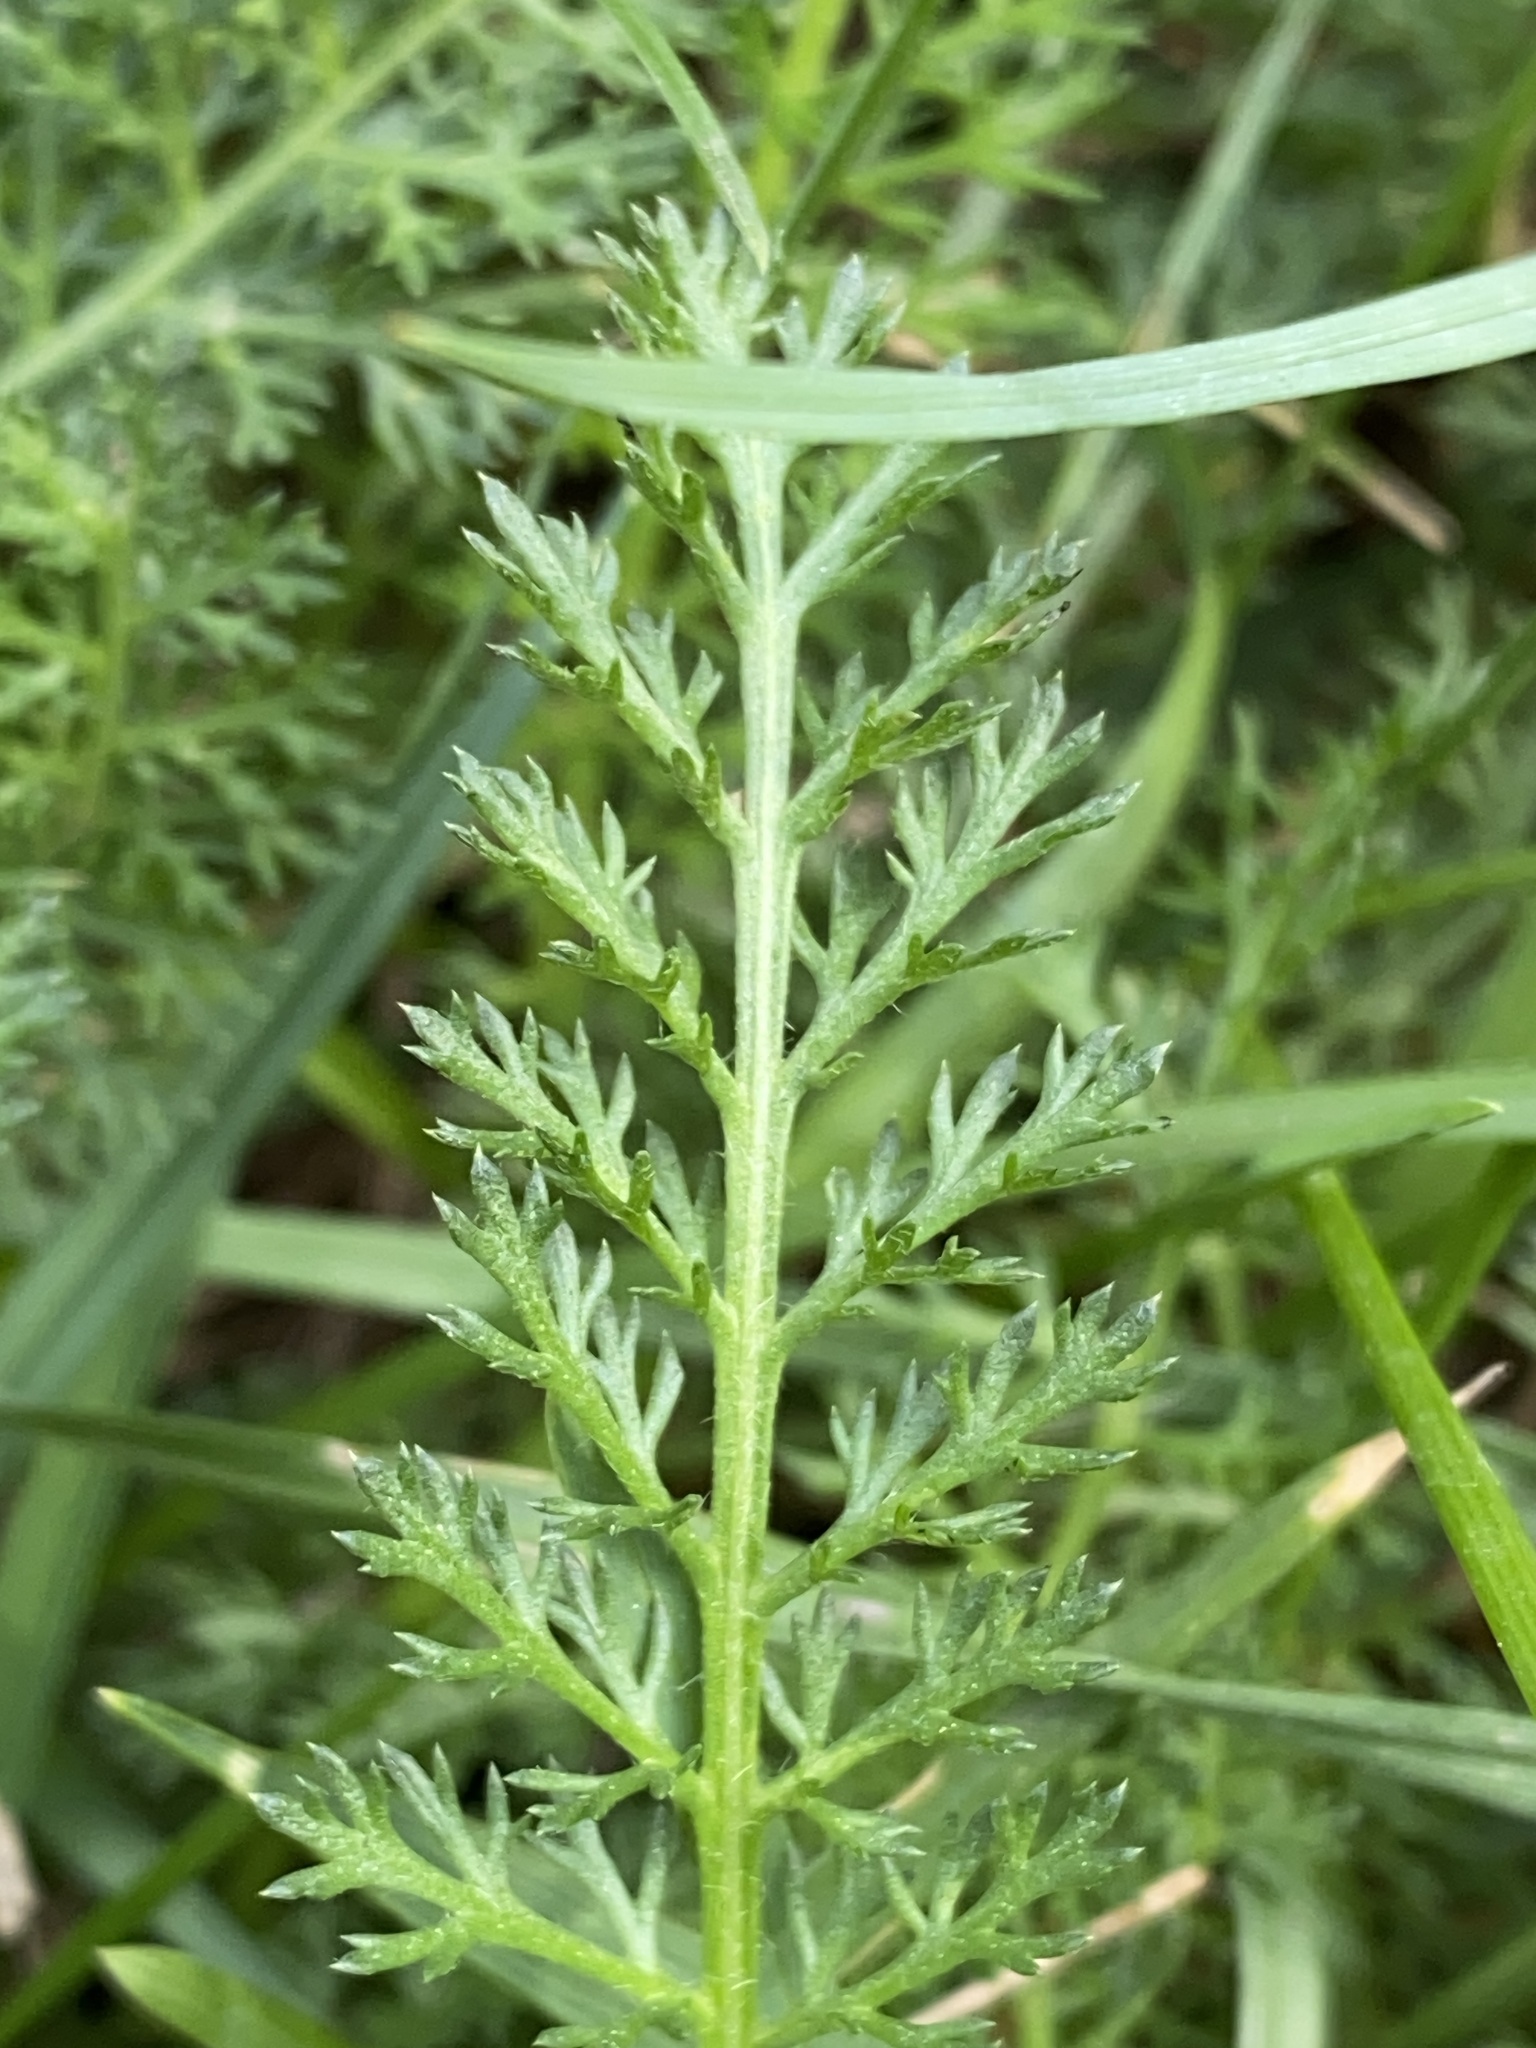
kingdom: Plantae
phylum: Tracheophyta
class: Magnoliopsida
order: Asterales
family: Asteraceae
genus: Achillea
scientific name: Achillea millefolium
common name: Yarrow
